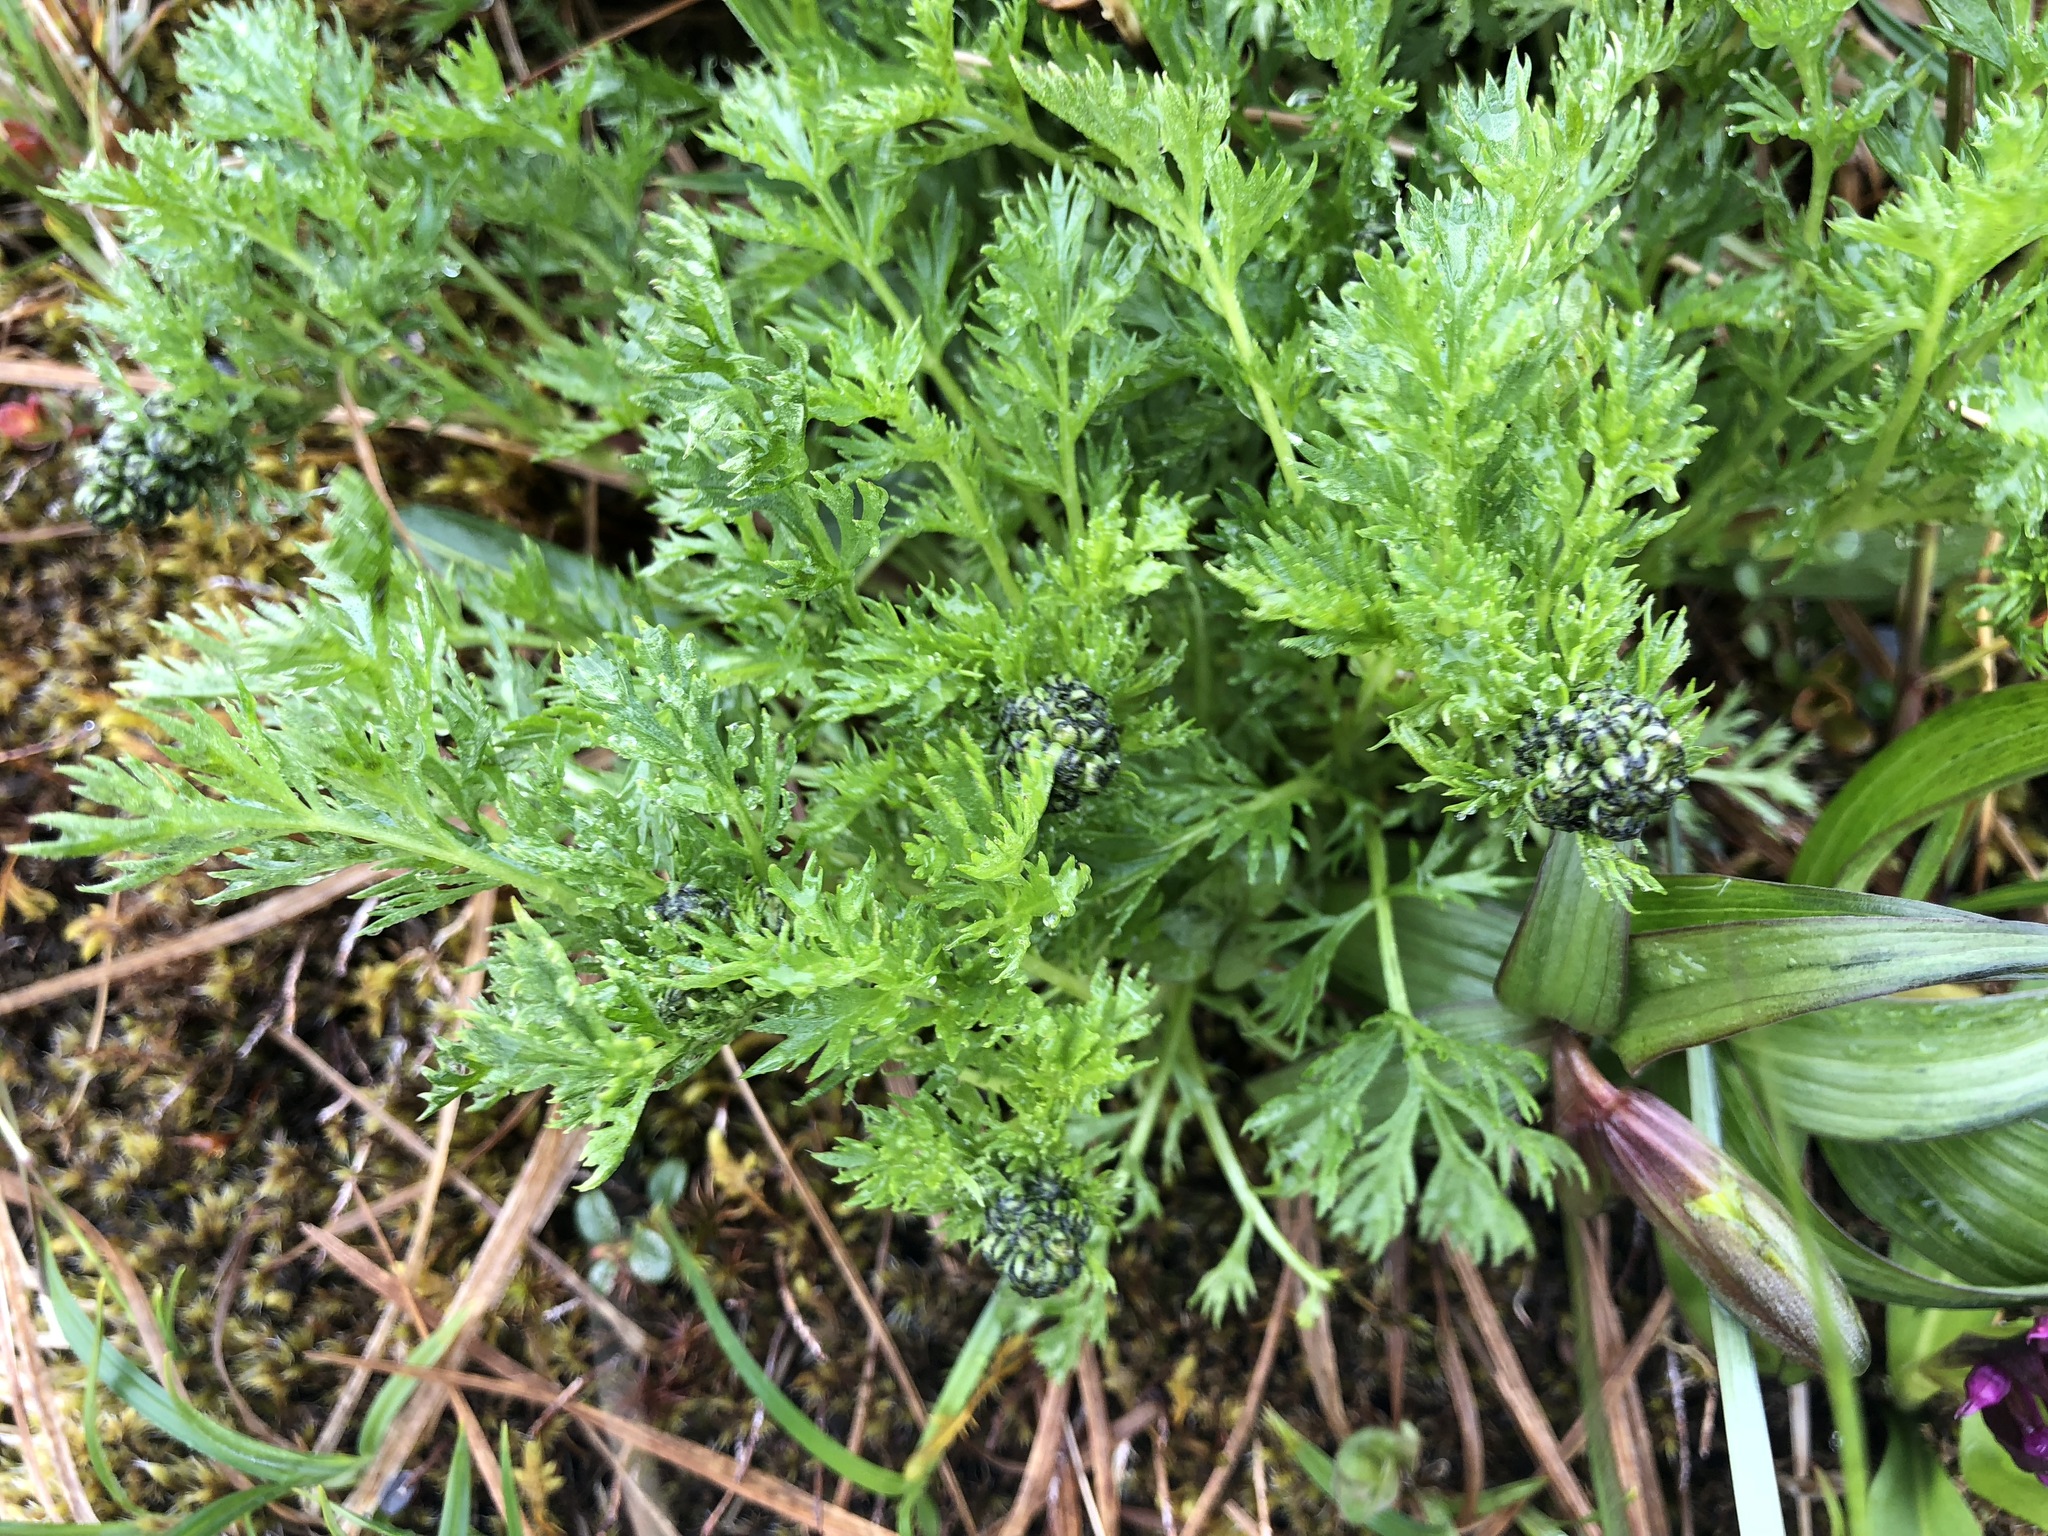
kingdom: Plantae
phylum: Tracheophyta
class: Magnoliopsida
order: Asterales
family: Asteraceae
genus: Artemisia
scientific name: Artemisia norvegica
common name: Norwegian mugwort
